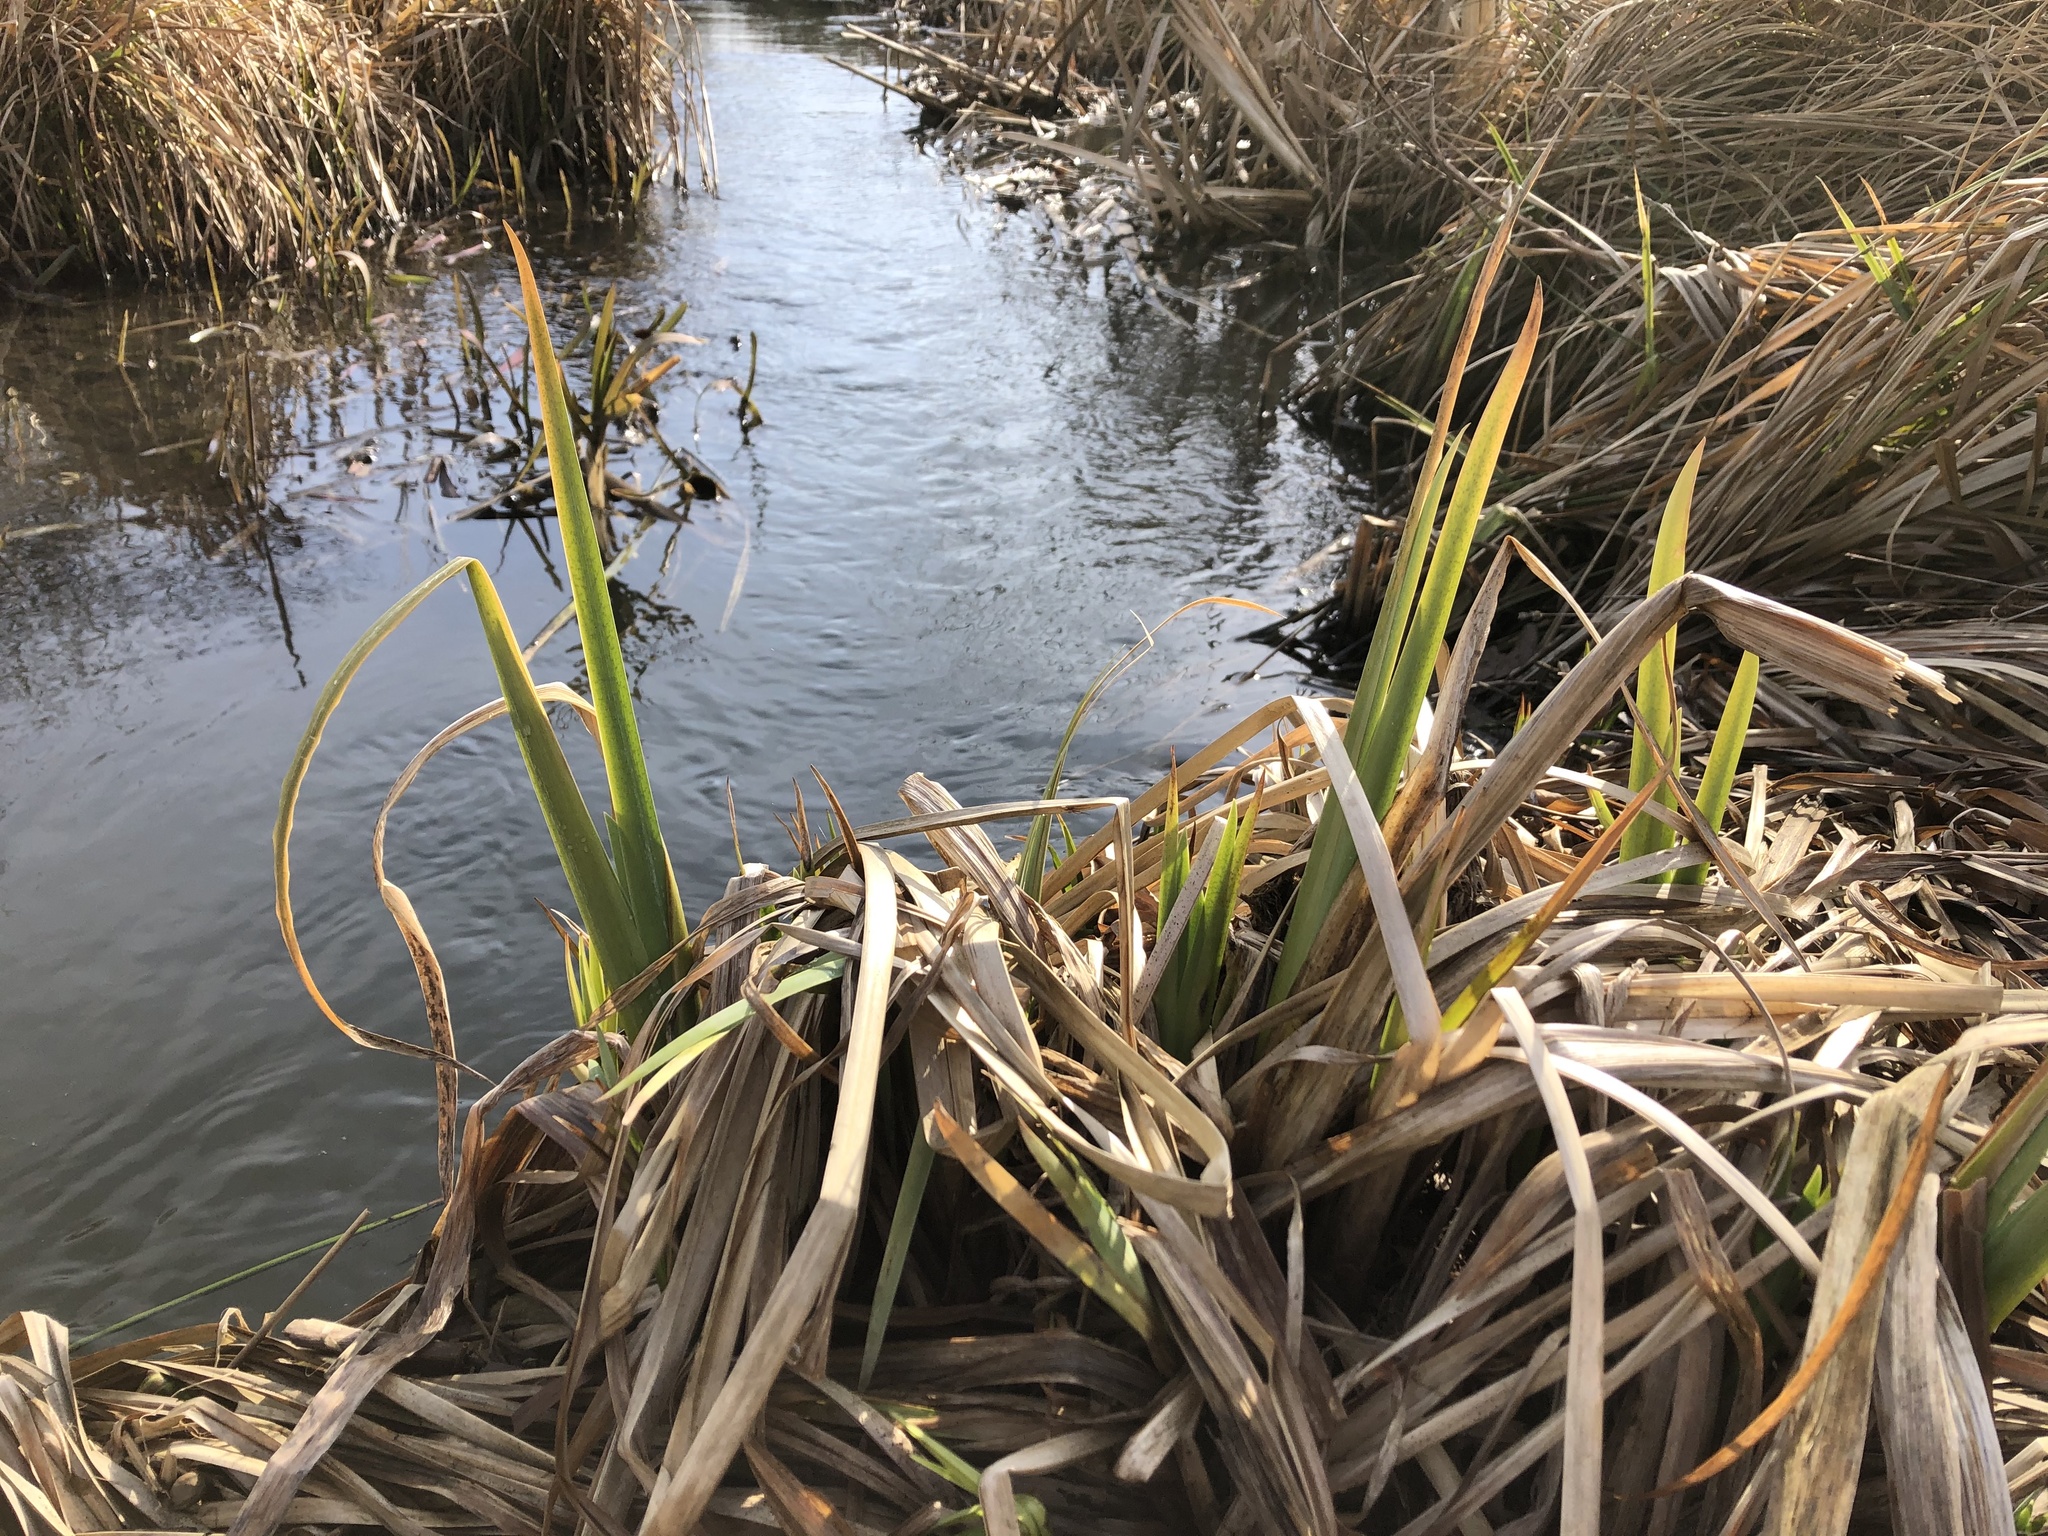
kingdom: Plantae
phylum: Tracheophyta
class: Liliopsida
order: Asparagales
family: Iridaceae
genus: Iris
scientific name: Iris pseudacorus
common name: Yellow flag
